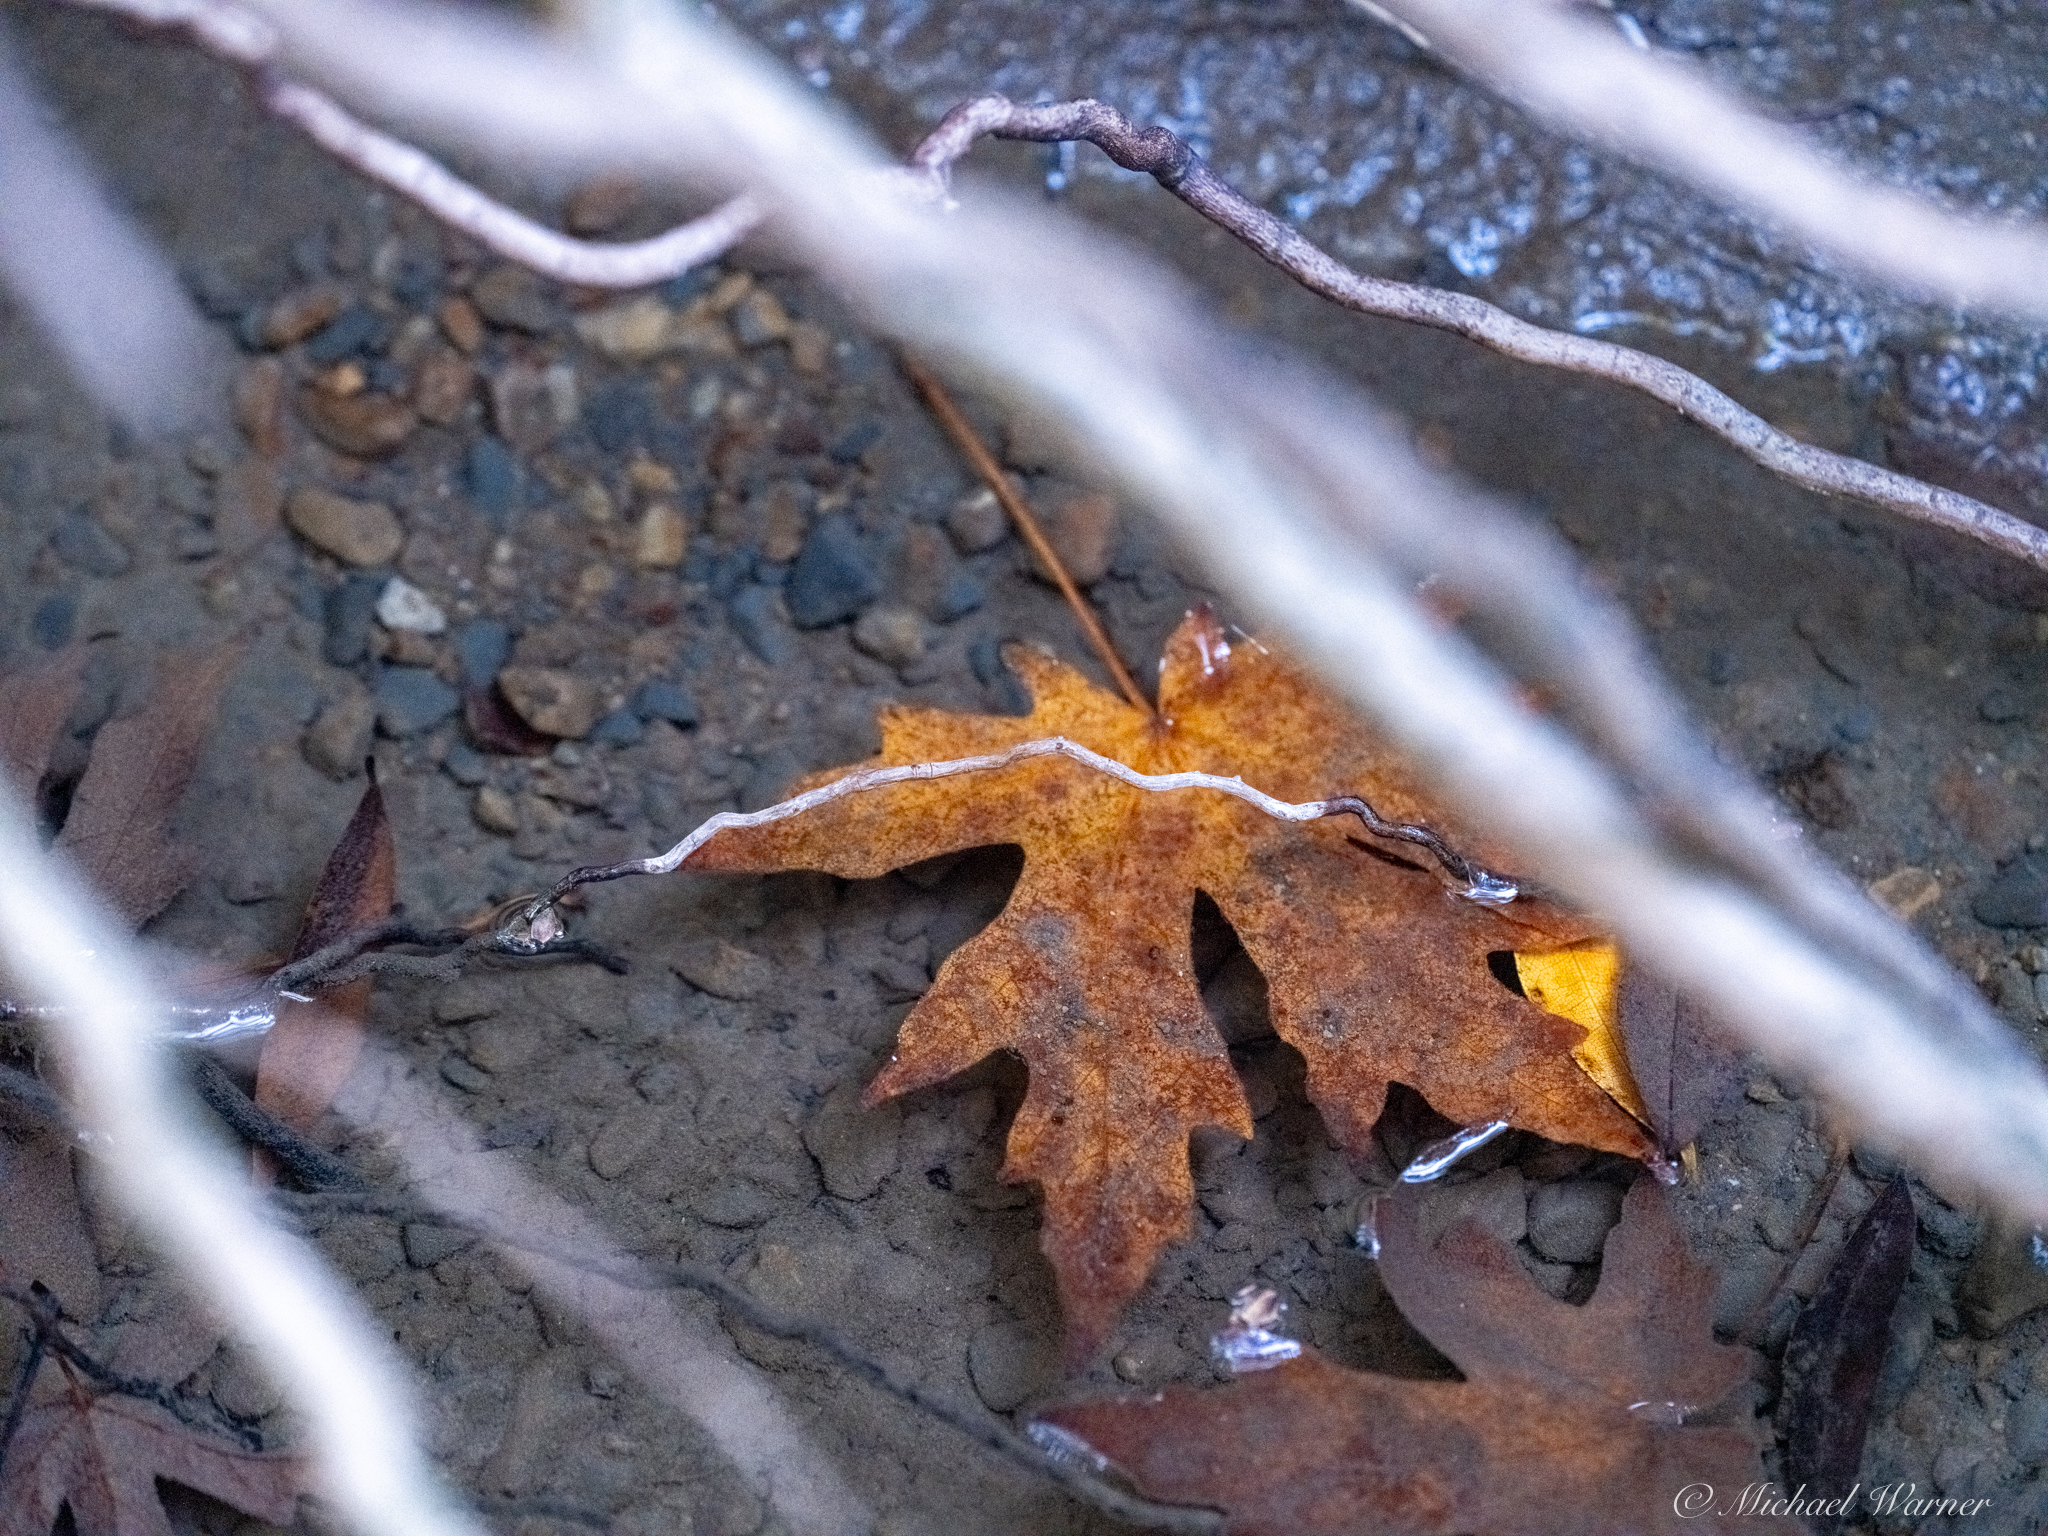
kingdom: Plantae
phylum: Tracheophyta
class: Magnoliopsida
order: Sapindales
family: Sapindaceae
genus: Acer
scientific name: Acer macrophyllum
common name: Oregon maple
